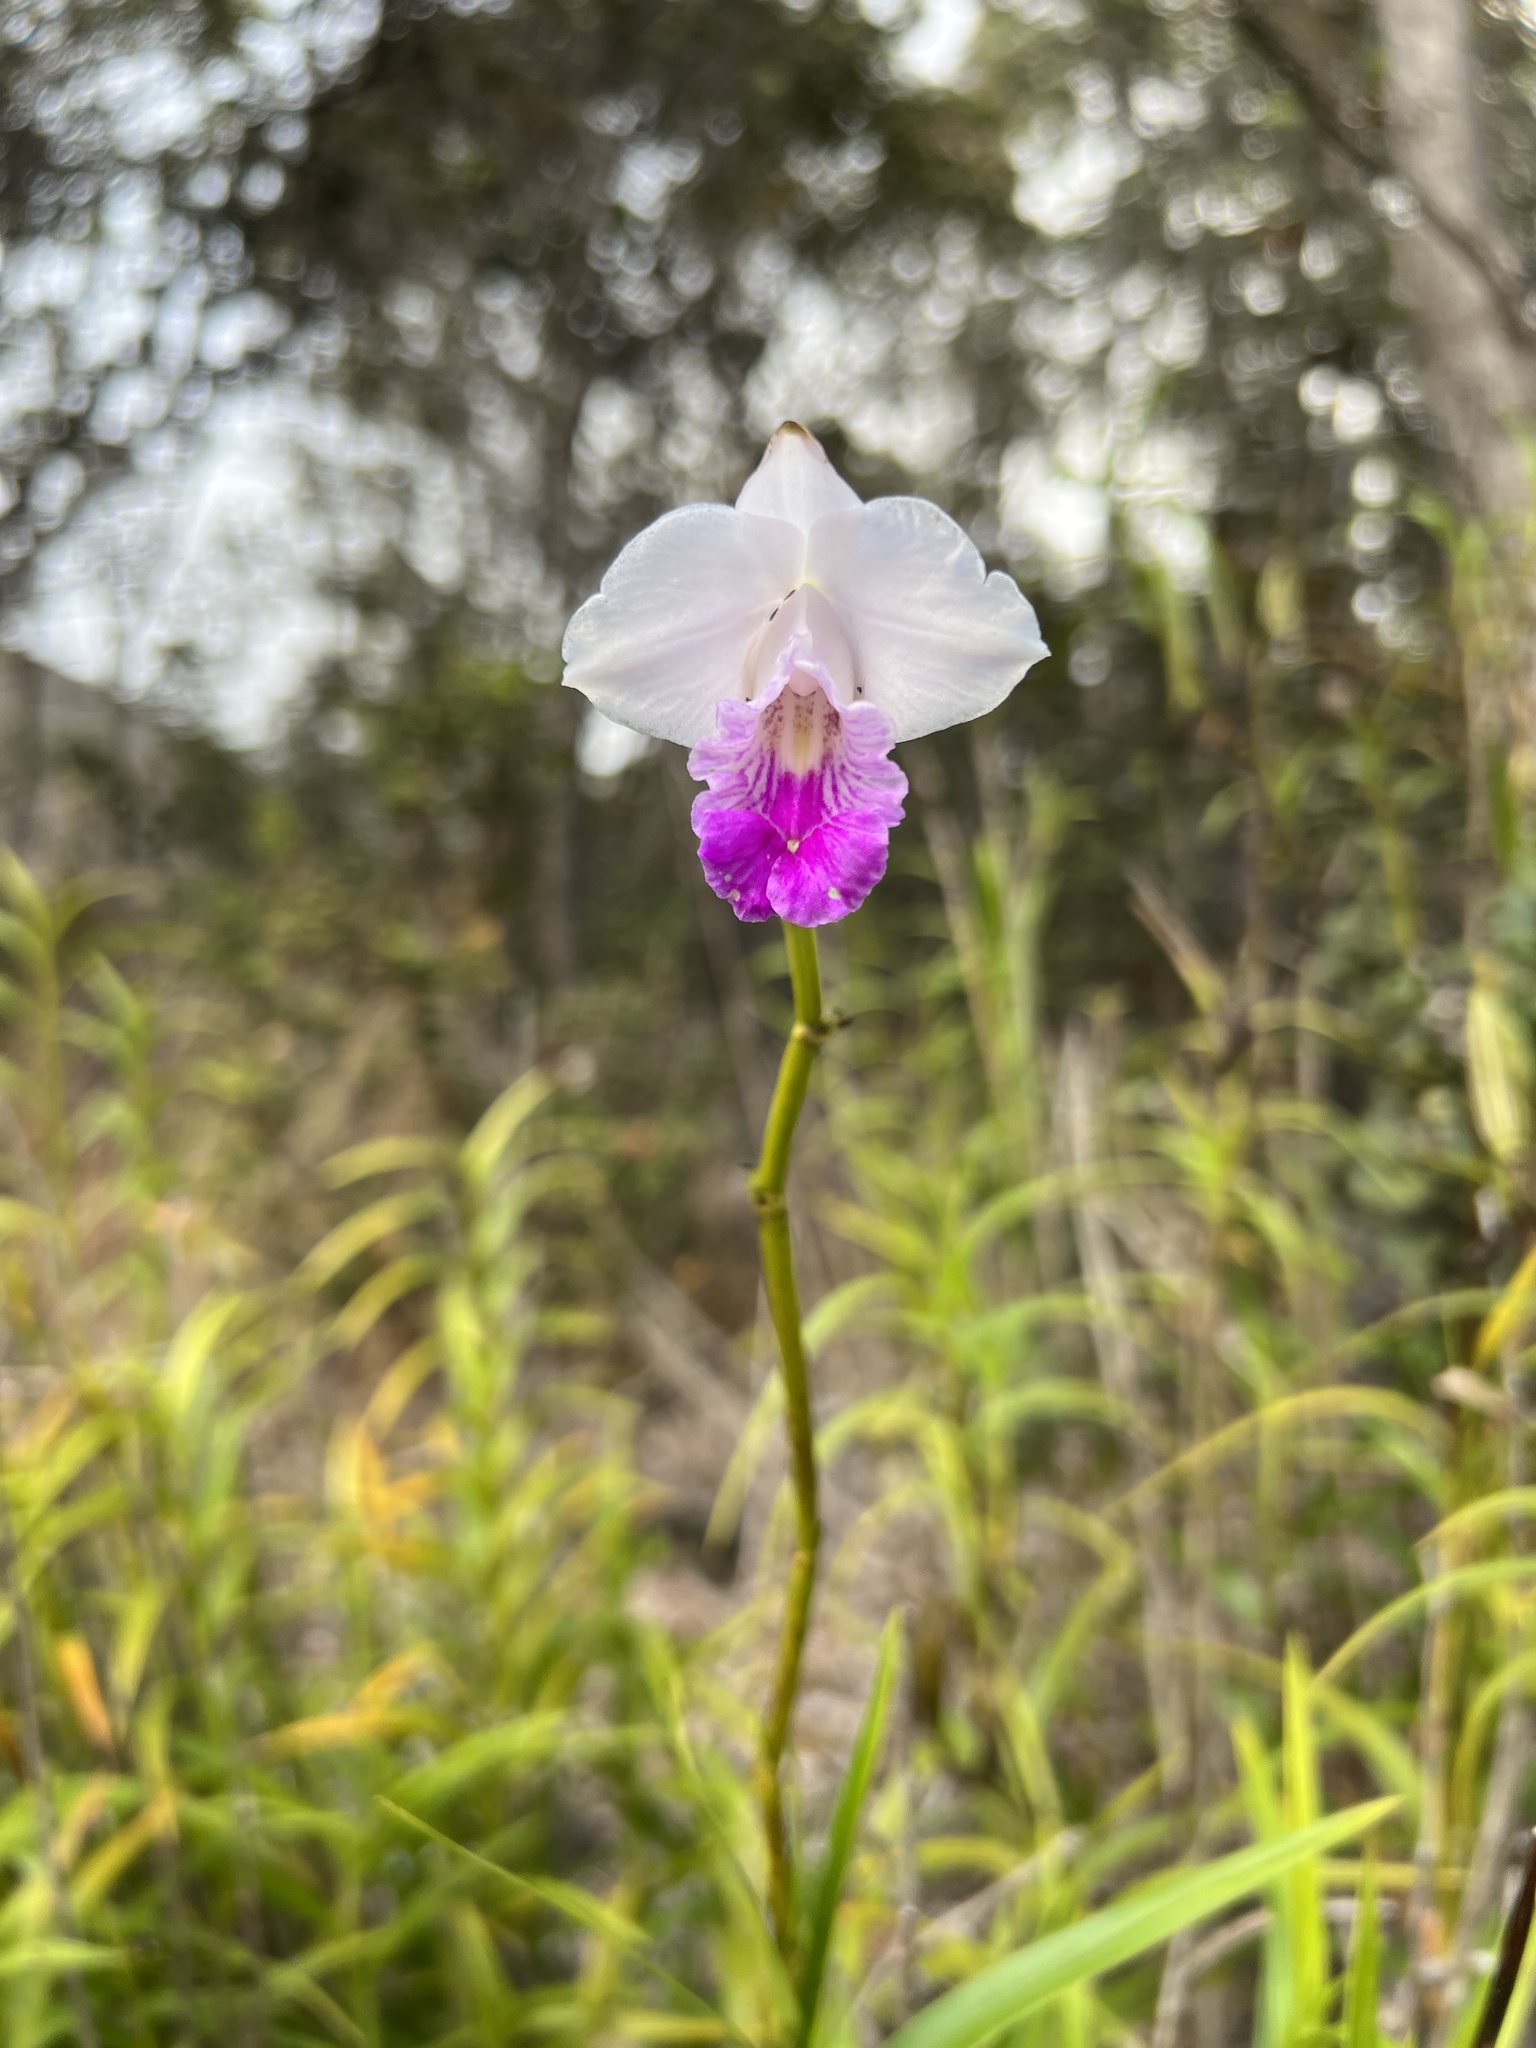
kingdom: Plantae
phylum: Tracheophyta
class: Liliopsida
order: Asparagales
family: Orchidaceae
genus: Arundina
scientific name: Arundina graminifolia
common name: Bamboo orchid
